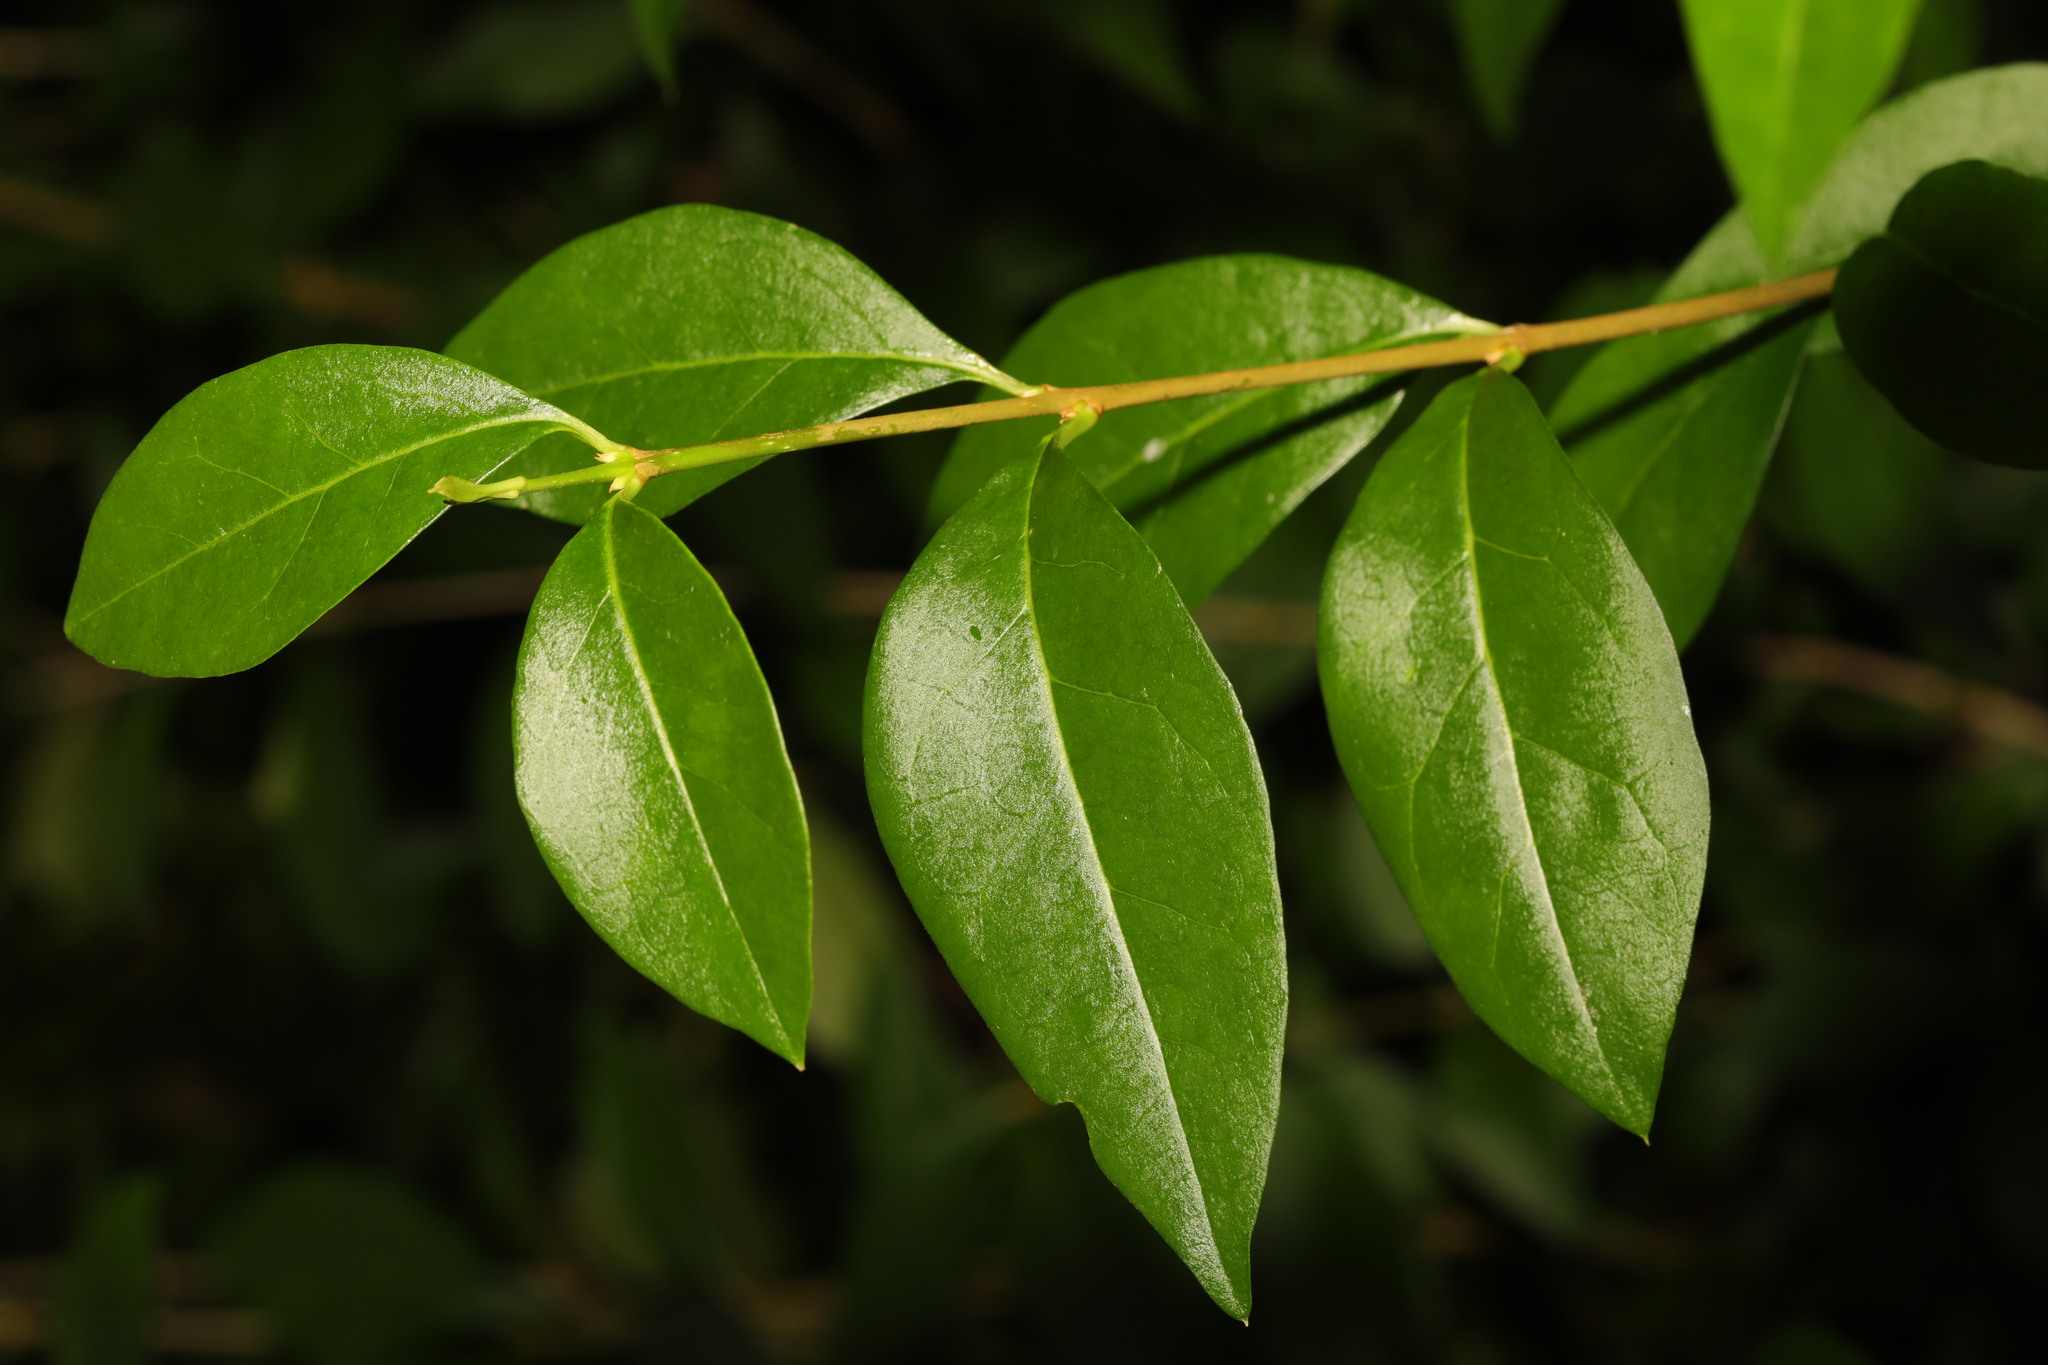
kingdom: Plantae
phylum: Tracheophyta
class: Magnoliopsida
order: Lamiales
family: Oleaceae
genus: Ligustrum
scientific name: Ligustrum ovalifolium
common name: California privet
